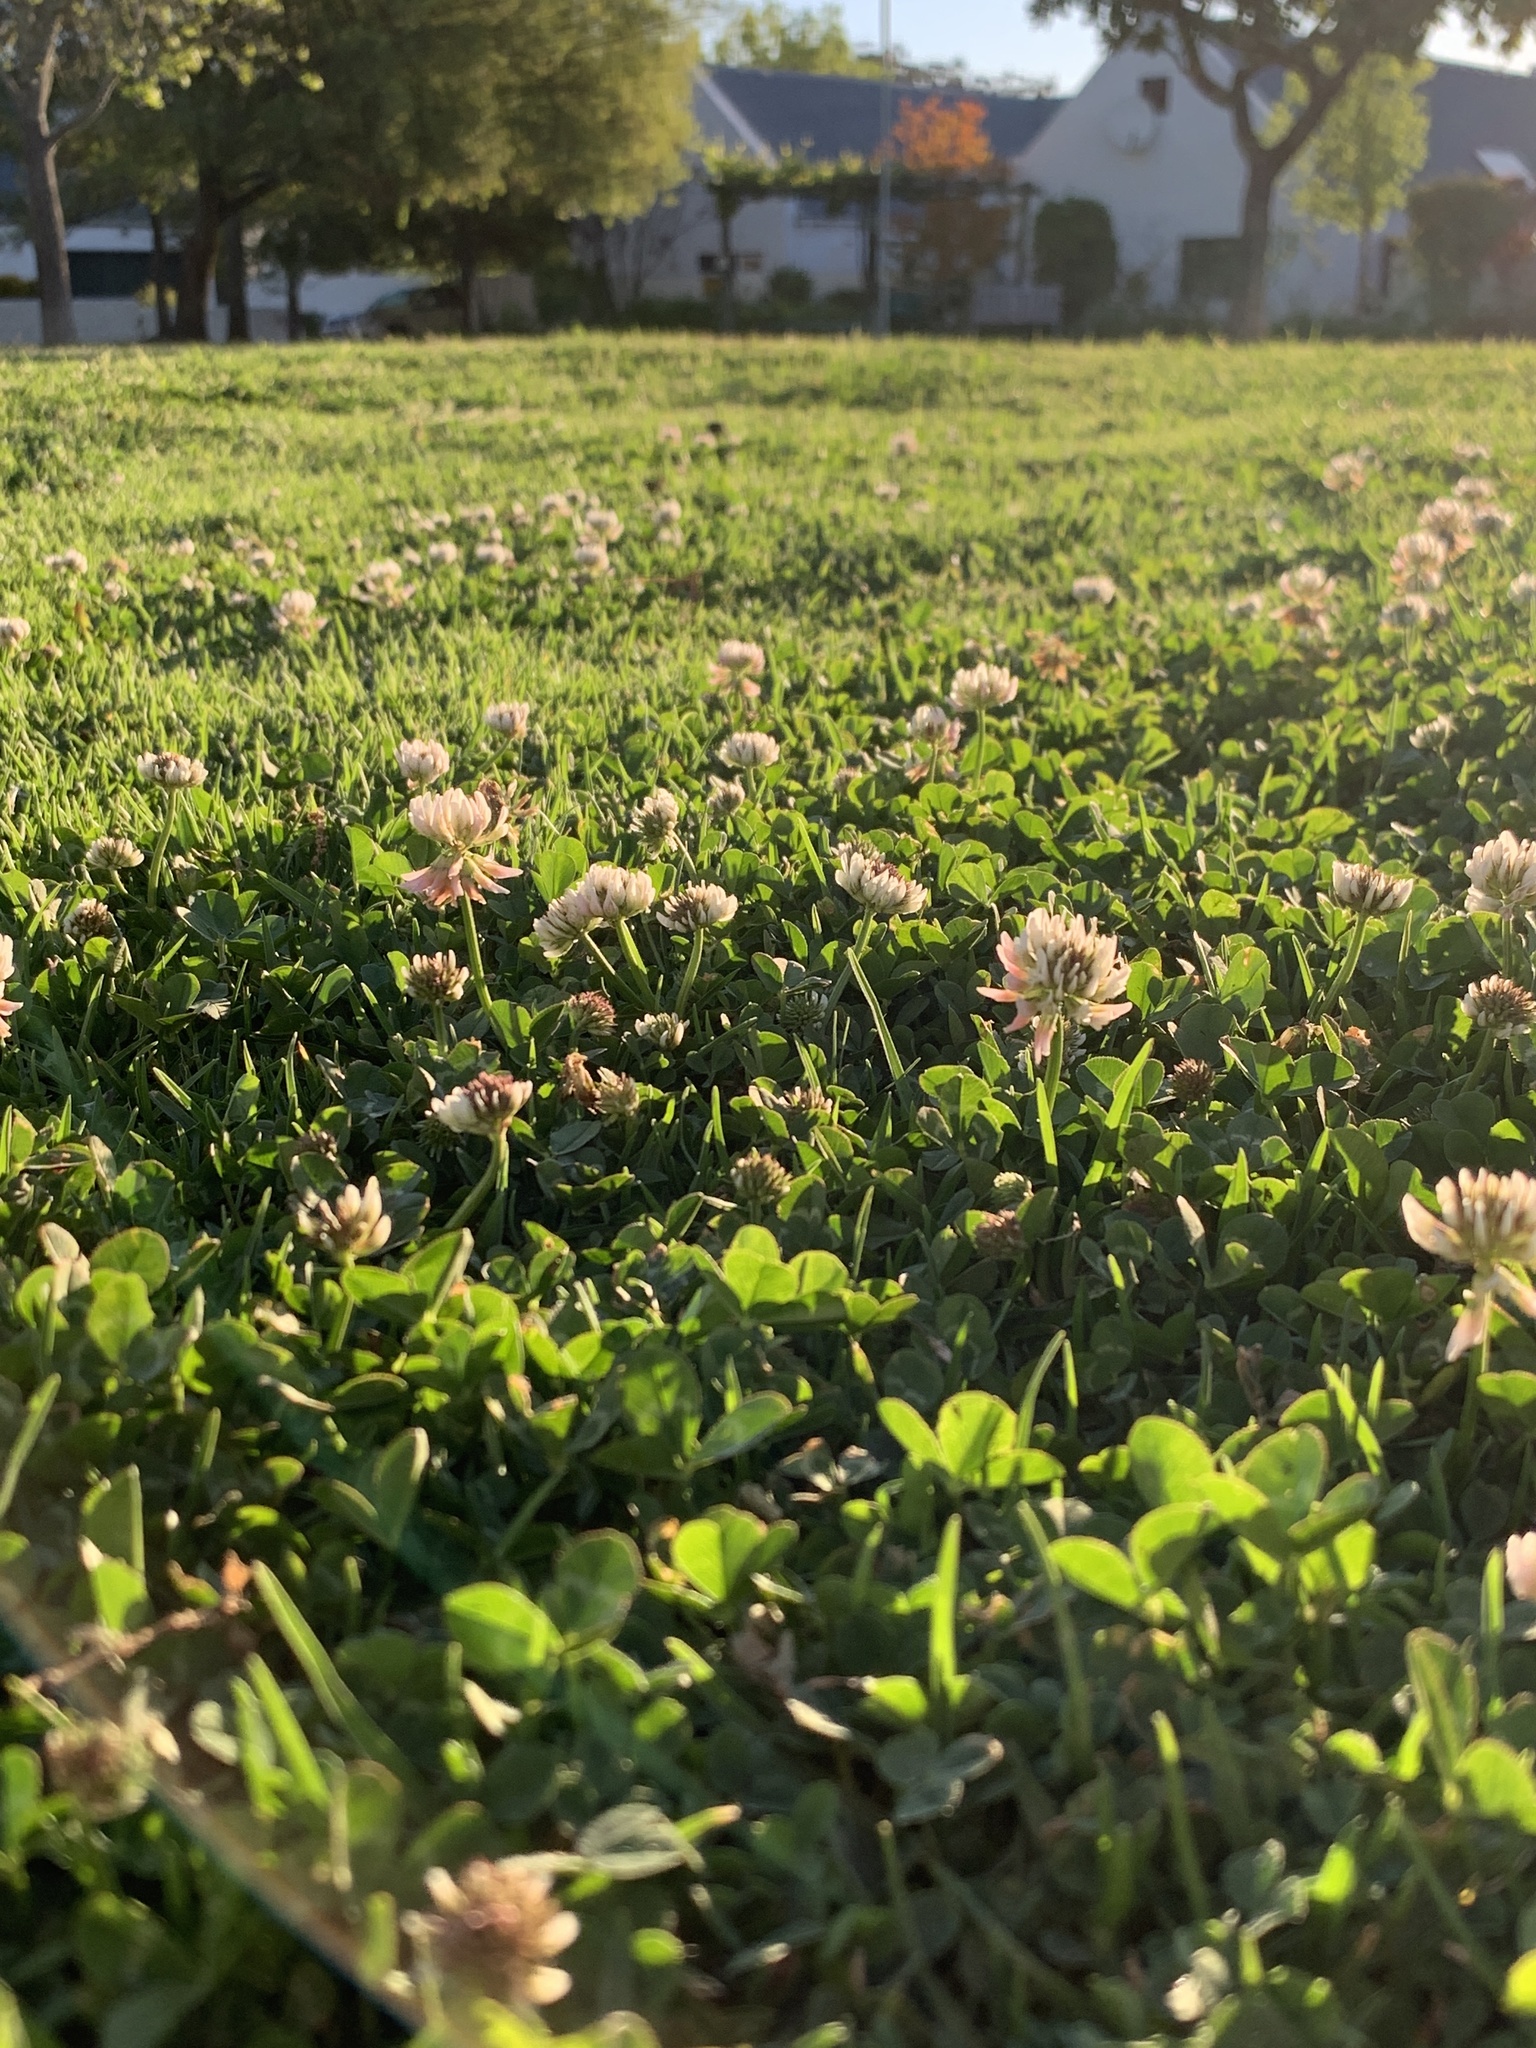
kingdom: Plantae
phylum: Tracheophyta
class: Magnoliopsida
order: Fabales
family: Fabaceae
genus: Trifolium
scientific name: Trifolium repens
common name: White clover
